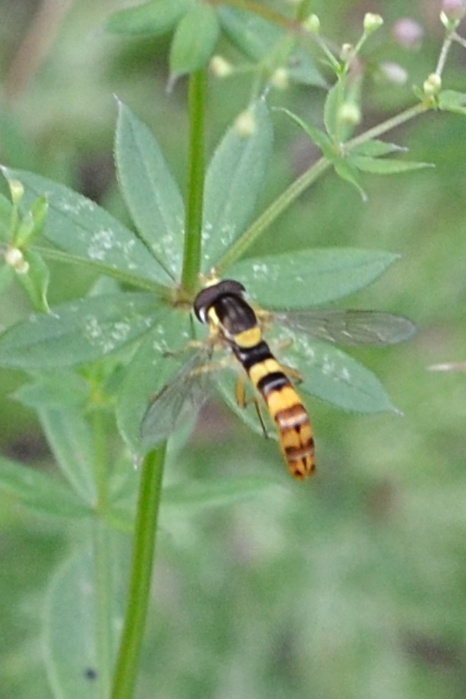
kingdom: Animalia
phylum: Arthropoda
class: Insecta
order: Diptera
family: Syrphidae
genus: Sphaerophoria
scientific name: Sphaerophoria scripta
